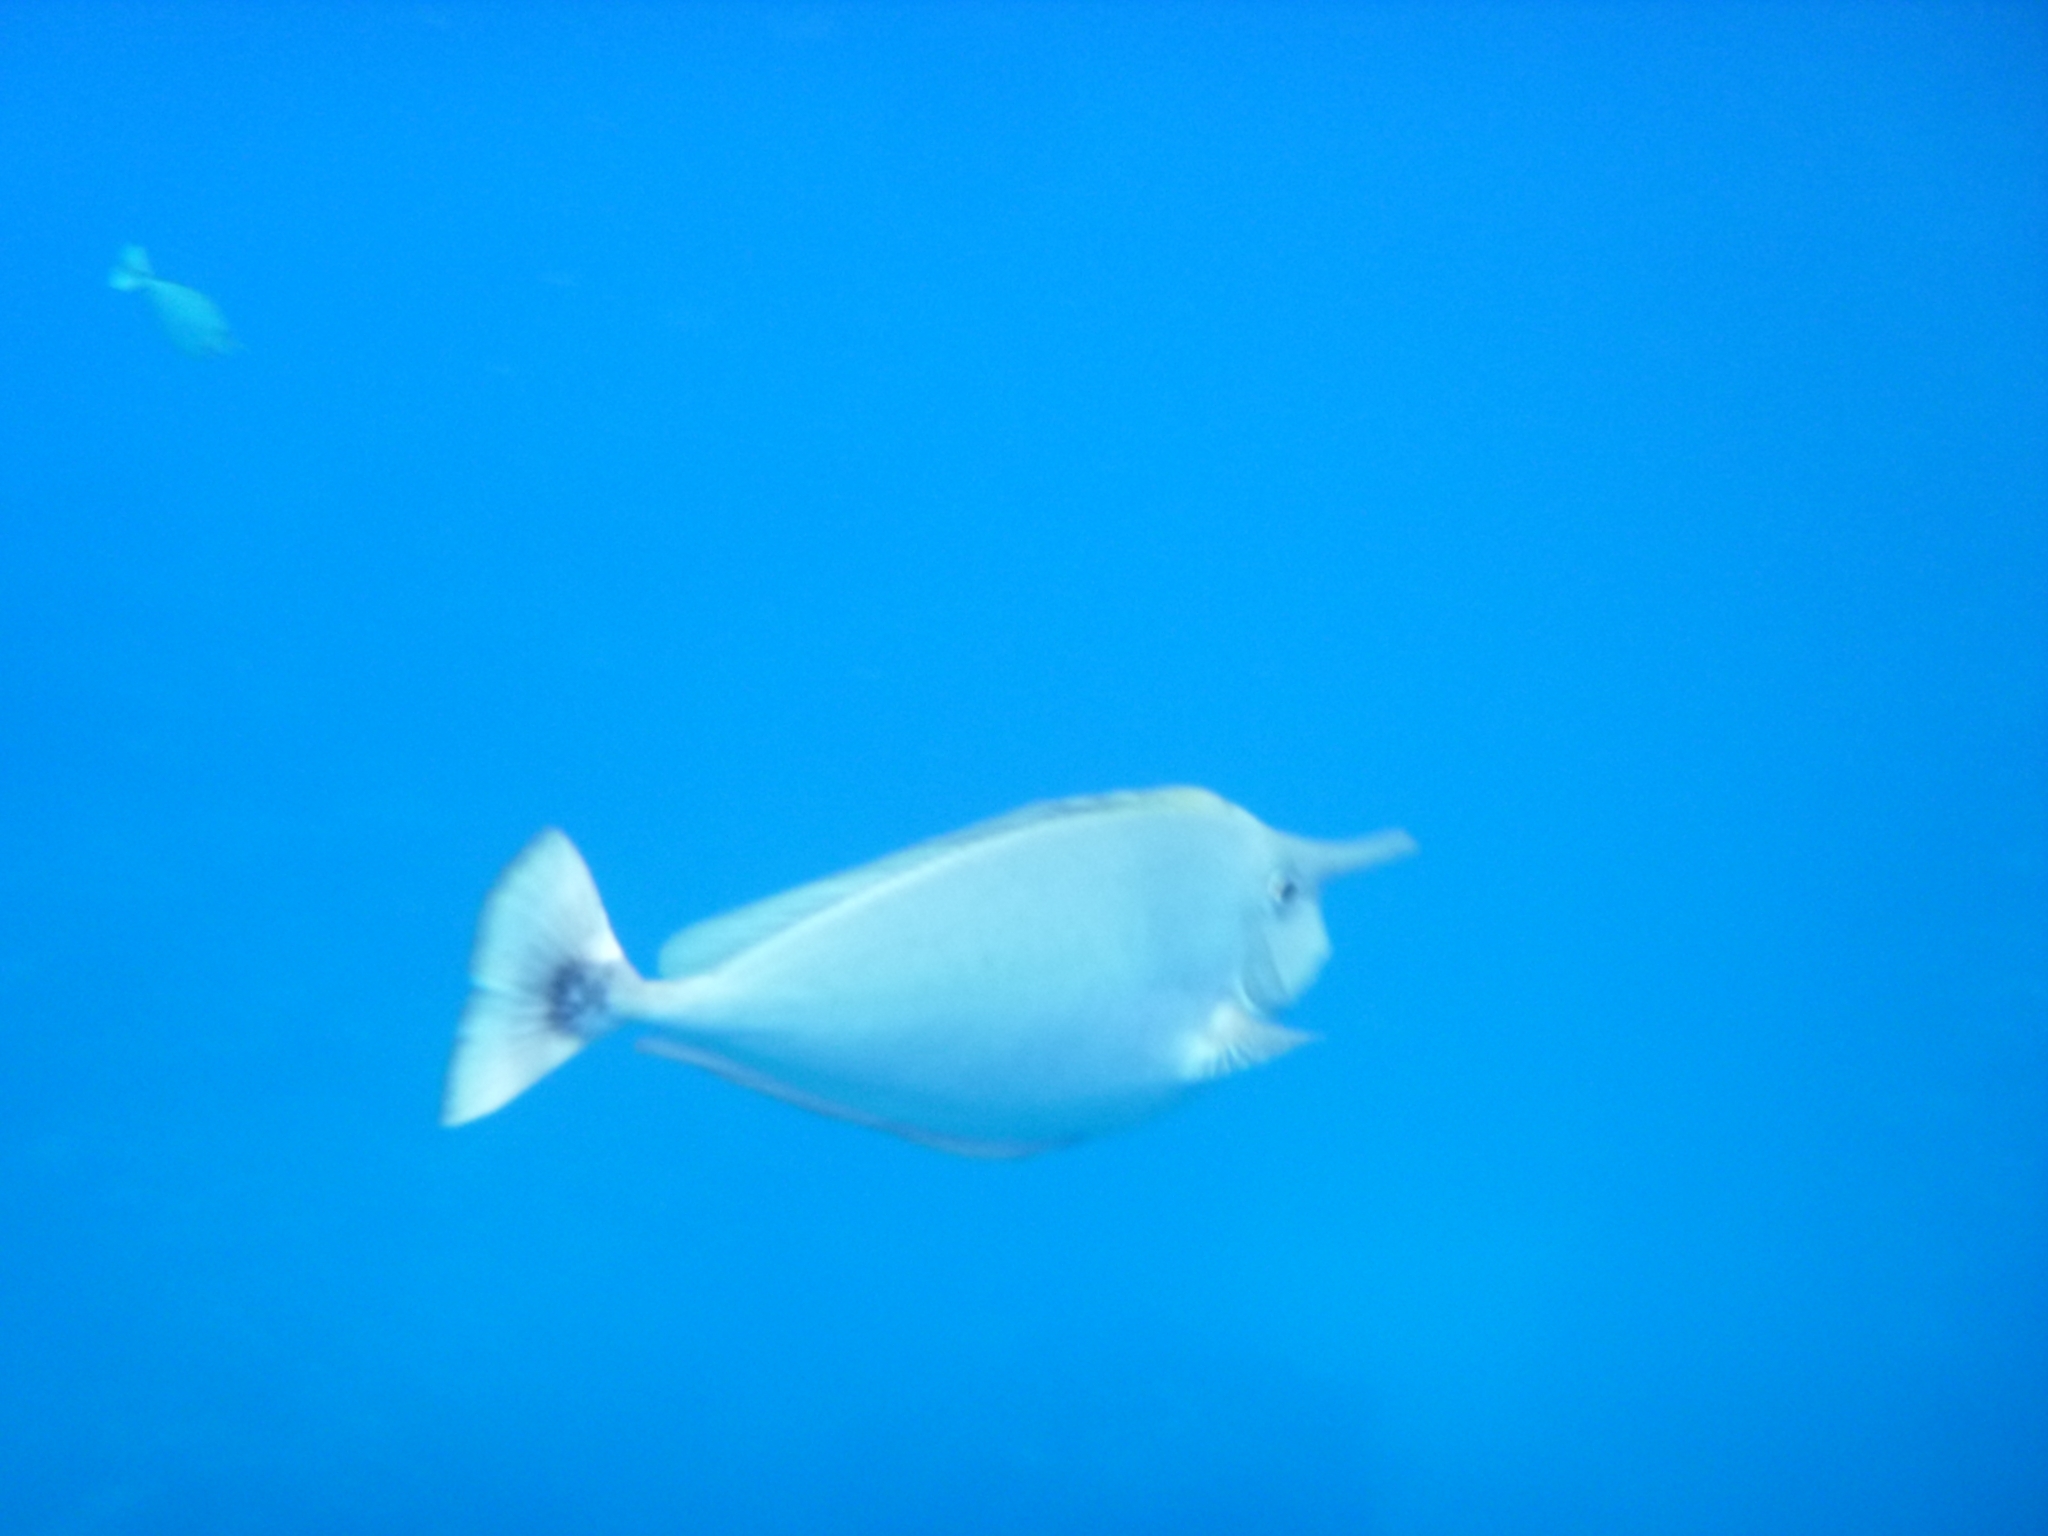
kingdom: Animalia
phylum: Chordata
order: Perciformes
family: Acanthuridae
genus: Naso
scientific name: Naso brevirostris
